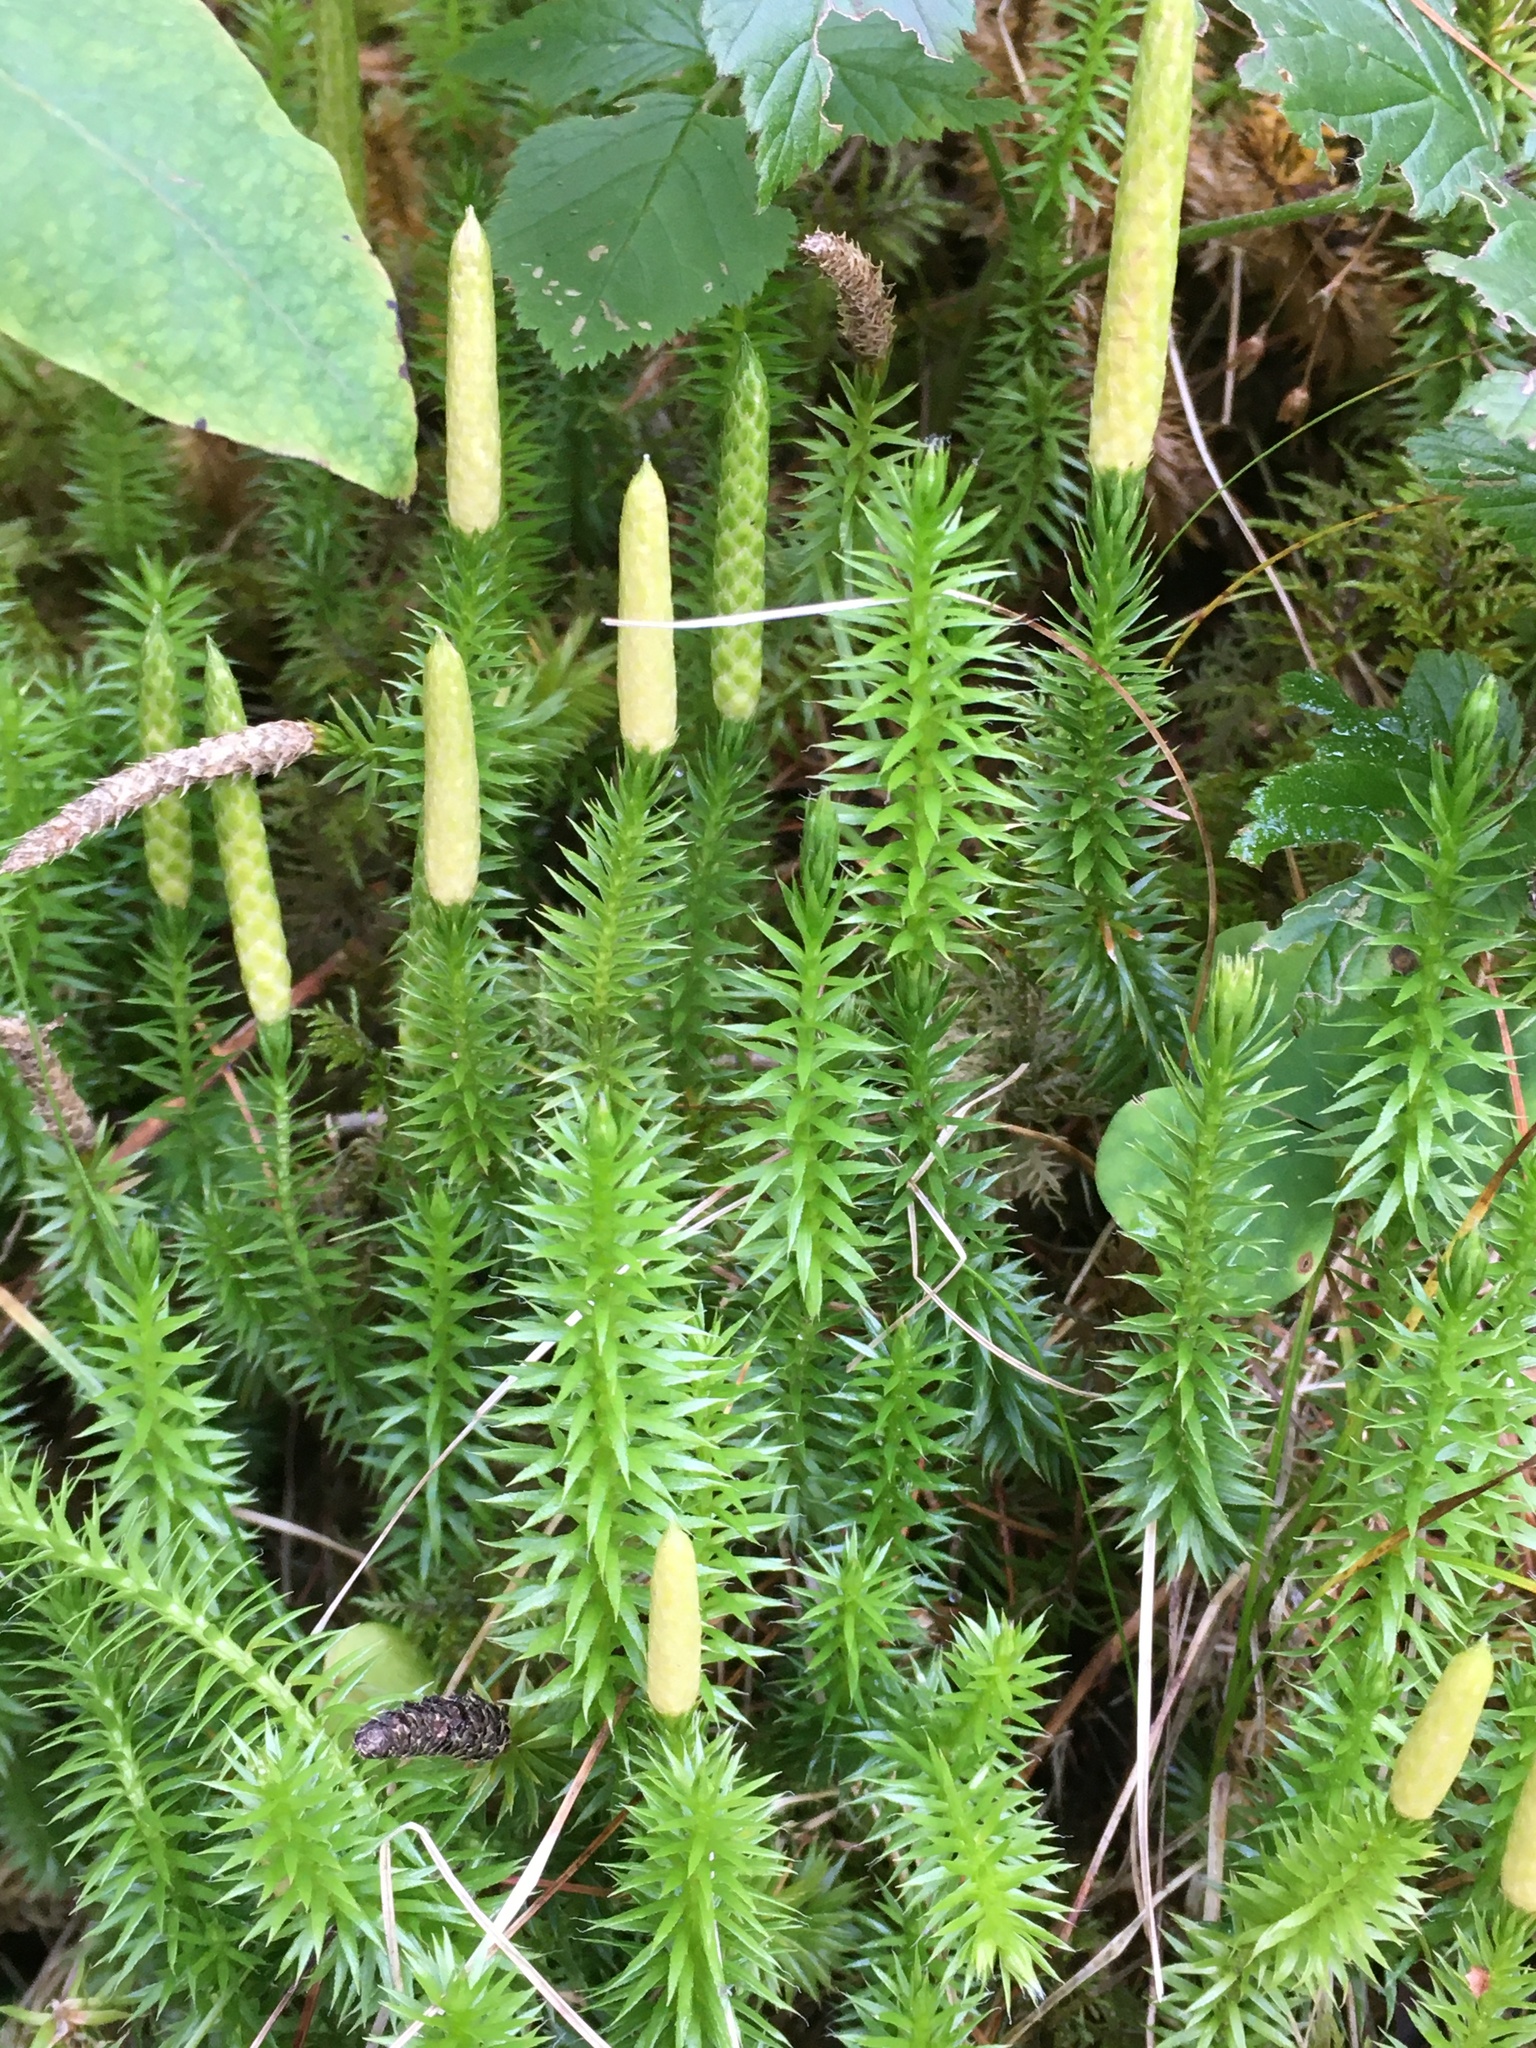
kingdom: Plantae
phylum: Tracheophyta
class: Lycopodiopsida
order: Lycopodiales
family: Lycopodiaceae
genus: Spinulum
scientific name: Spinulum annotinum
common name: Interrupted club-moss
